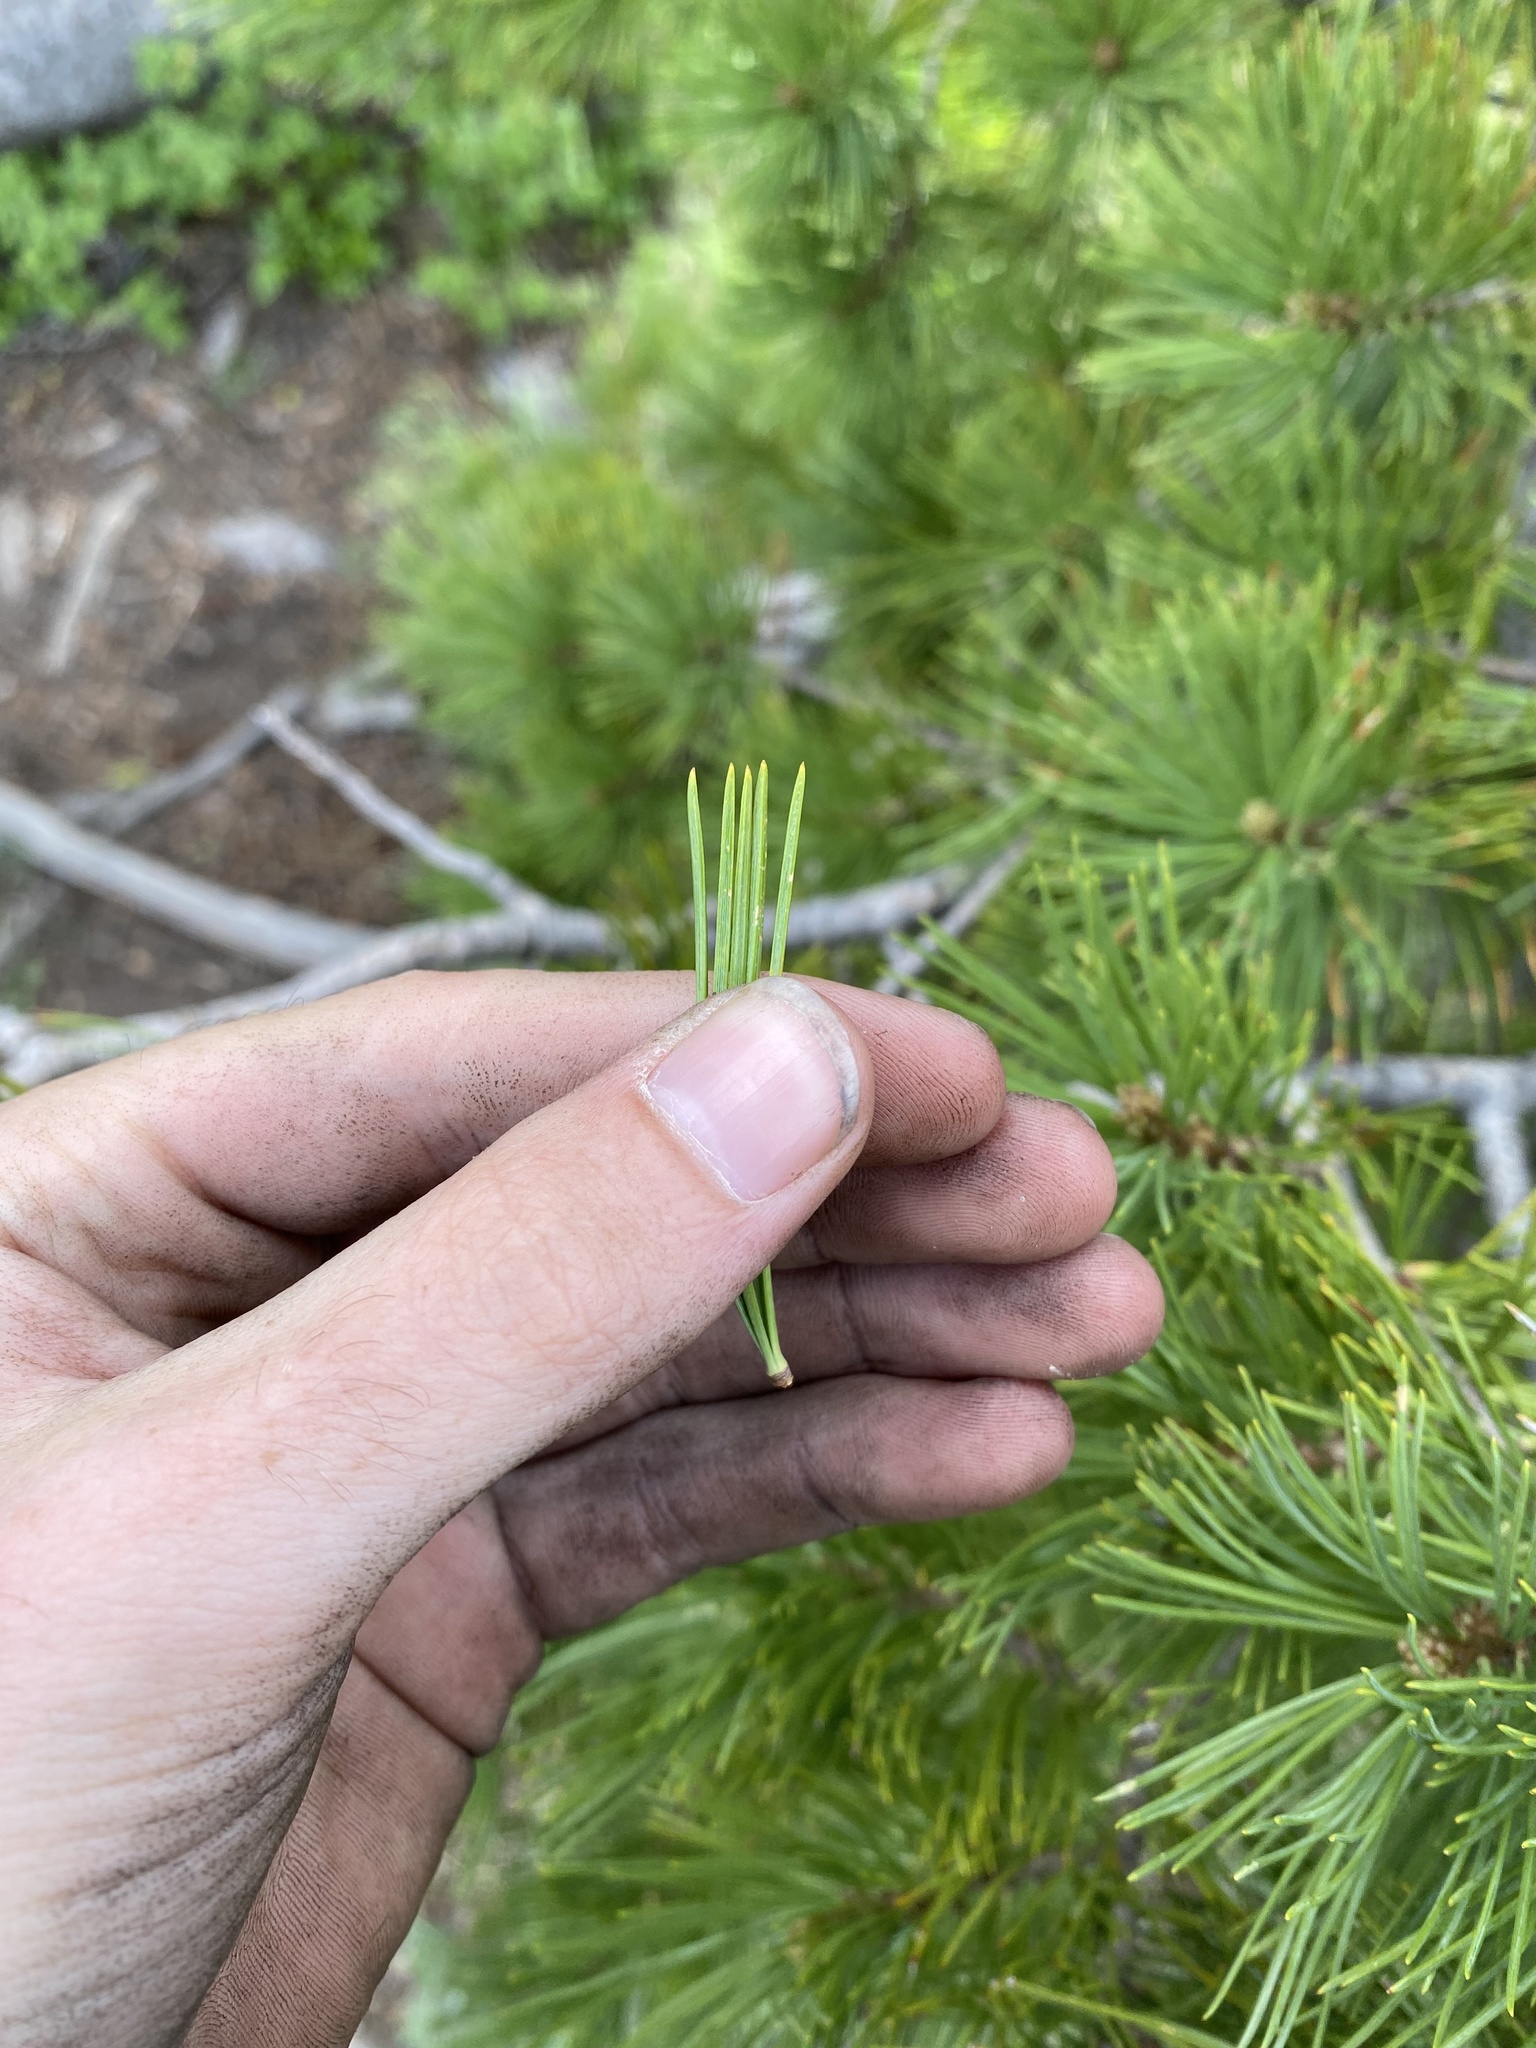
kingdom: Plantae
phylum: Tracheophyta
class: Pinopsida
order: Pinales
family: Pinaceae
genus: Pinus
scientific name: Pinus albicaulis
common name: Whitebark pine
